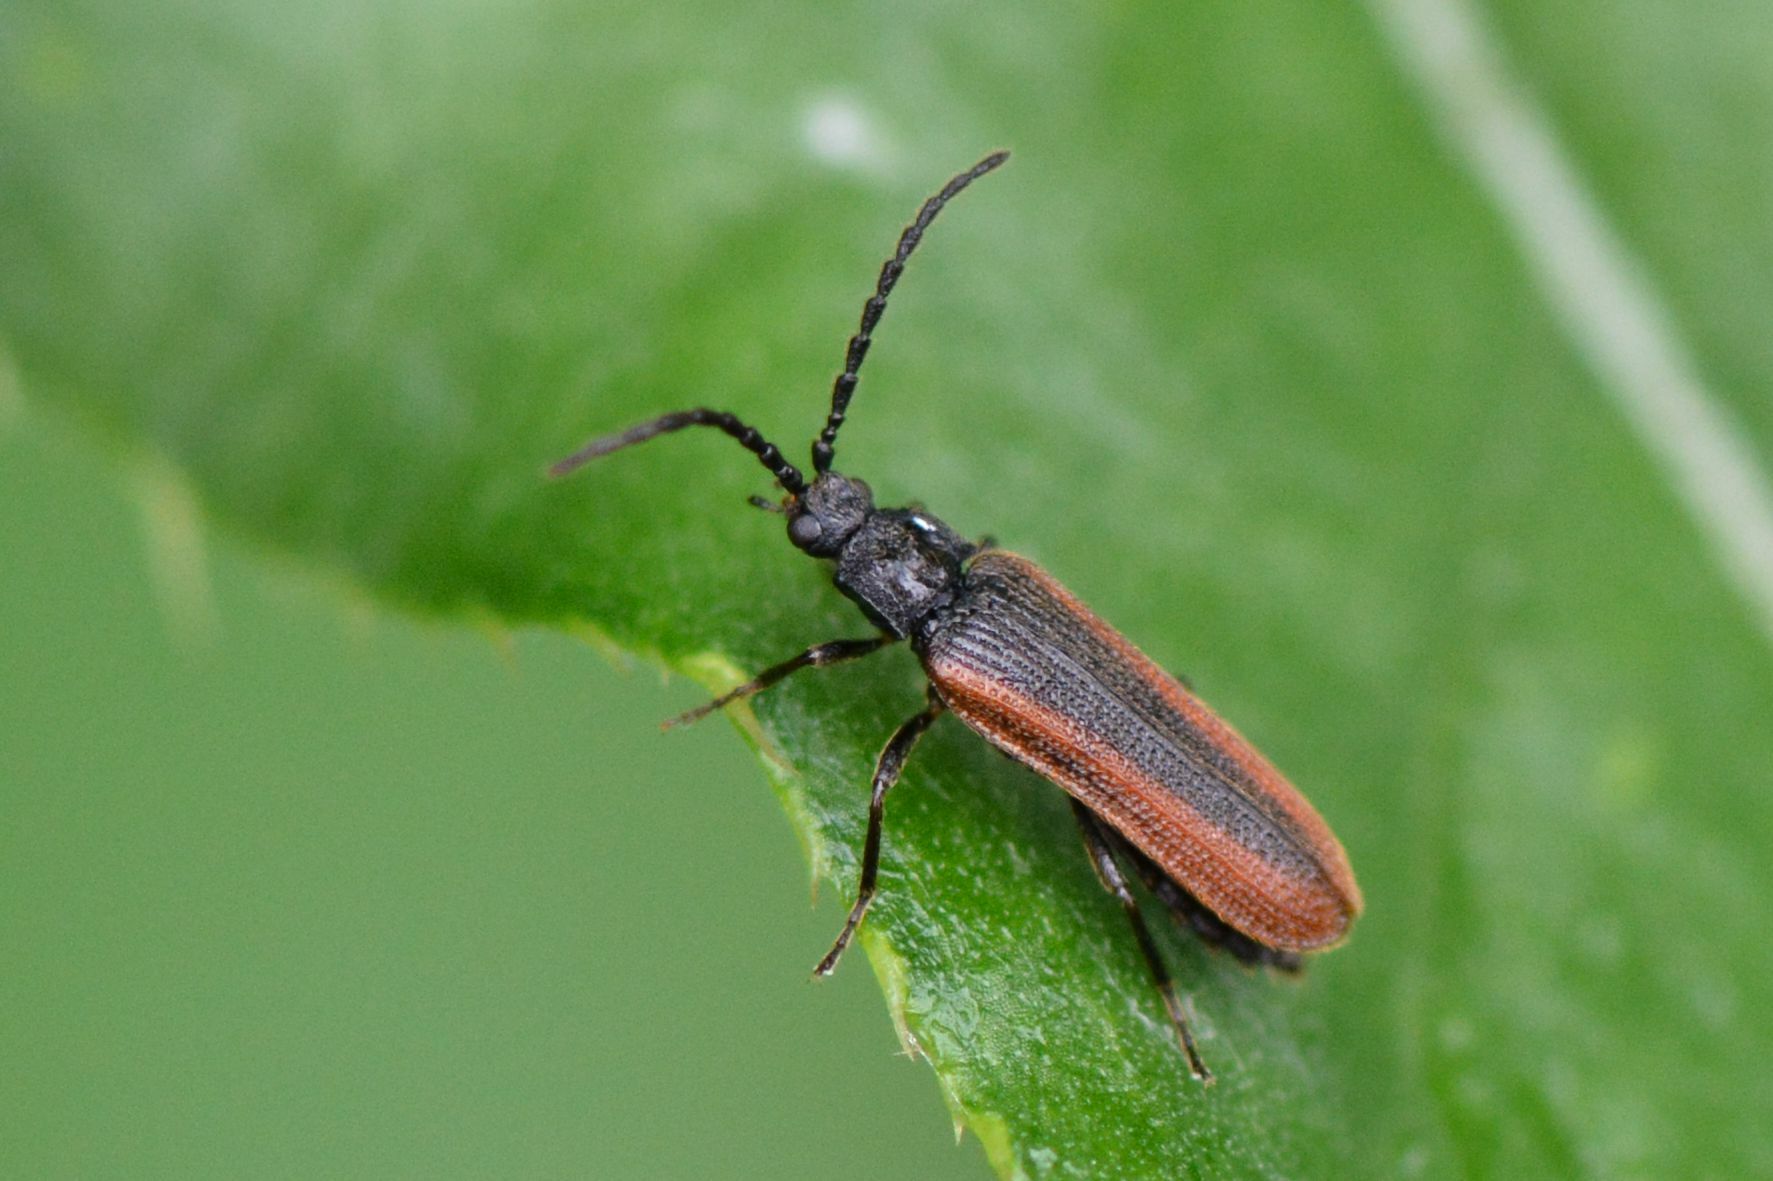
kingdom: Animalia
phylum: Arthropoda
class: Insecta
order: Coleoptera
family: Omalisidae
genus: Omalisus
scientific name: Omalisus fontisbellaquei
